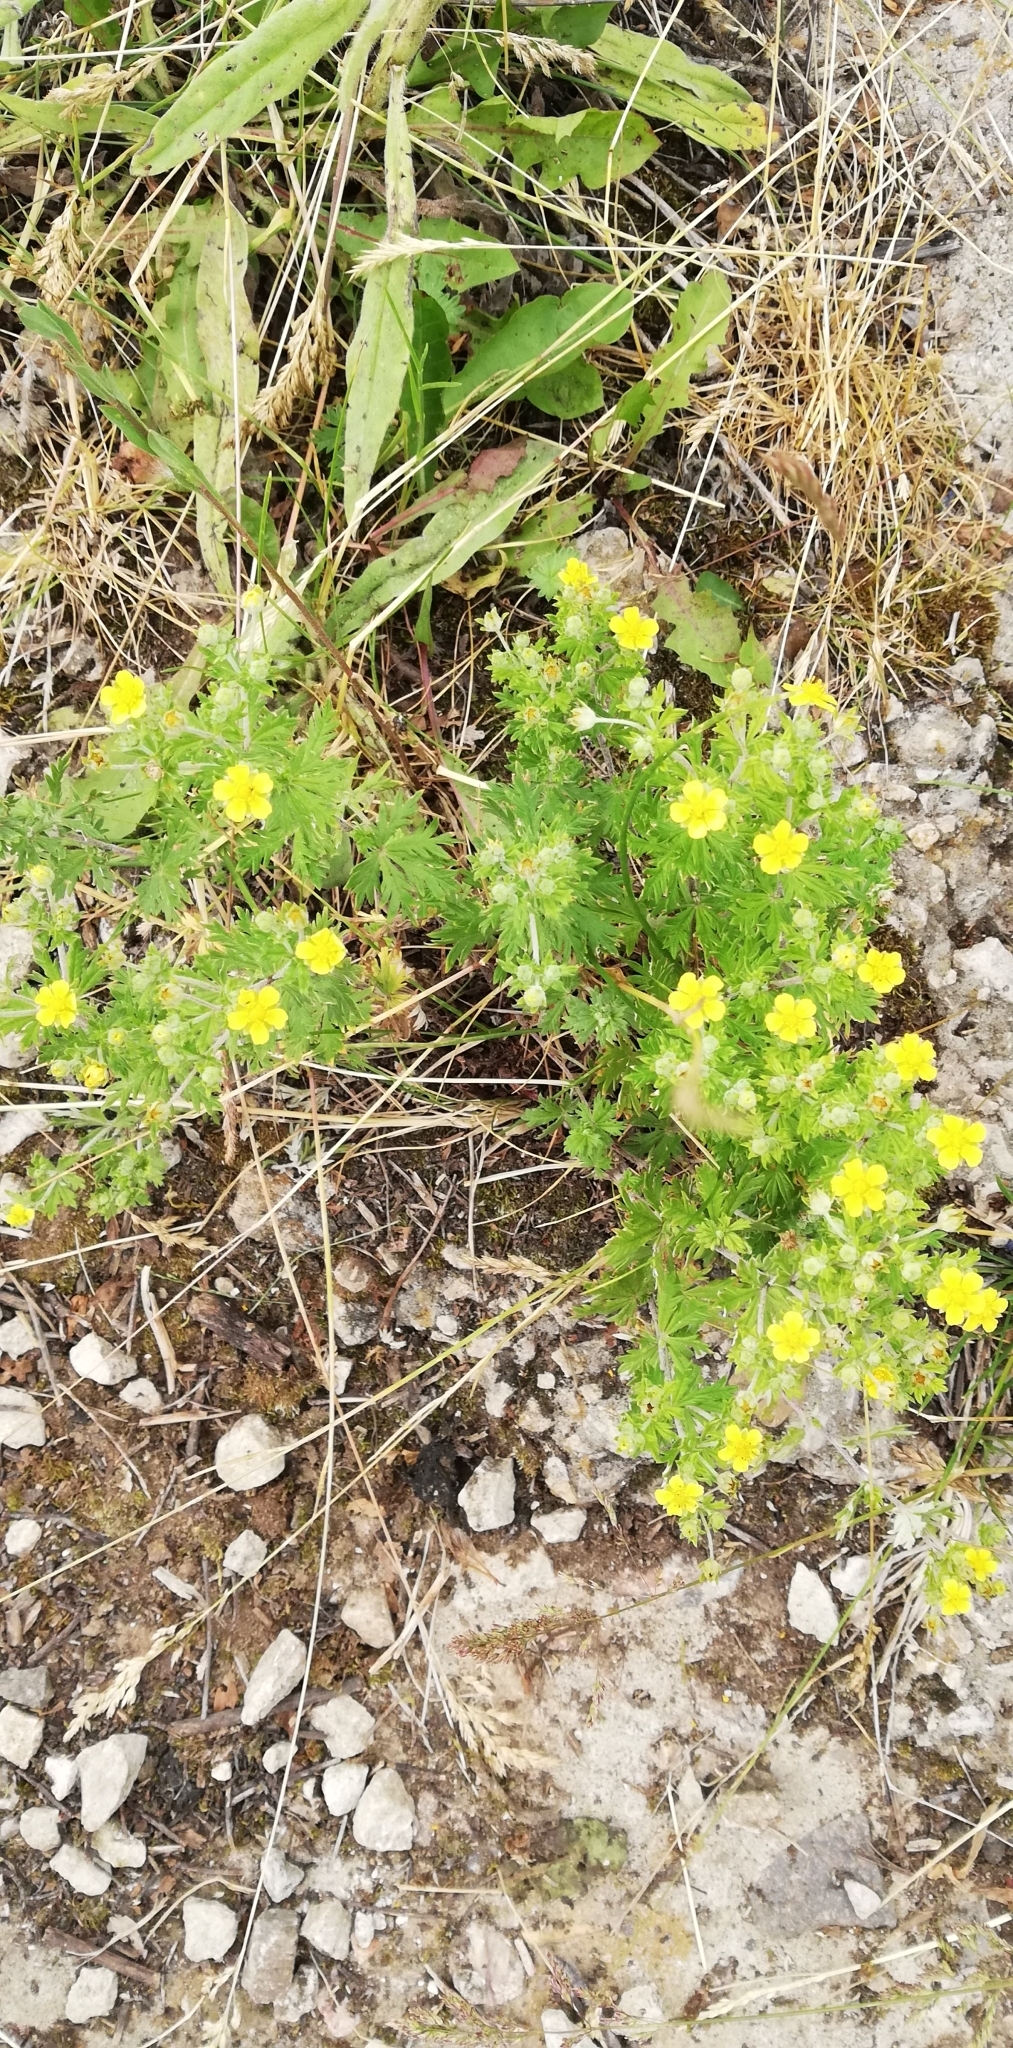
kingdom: Plantae
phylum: Tracheophyta
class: Magnoliopsida
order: Rosales
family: Rosaceae
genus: Potentilla
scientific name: Potentilla argentea
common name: Hoary cinquefoil
